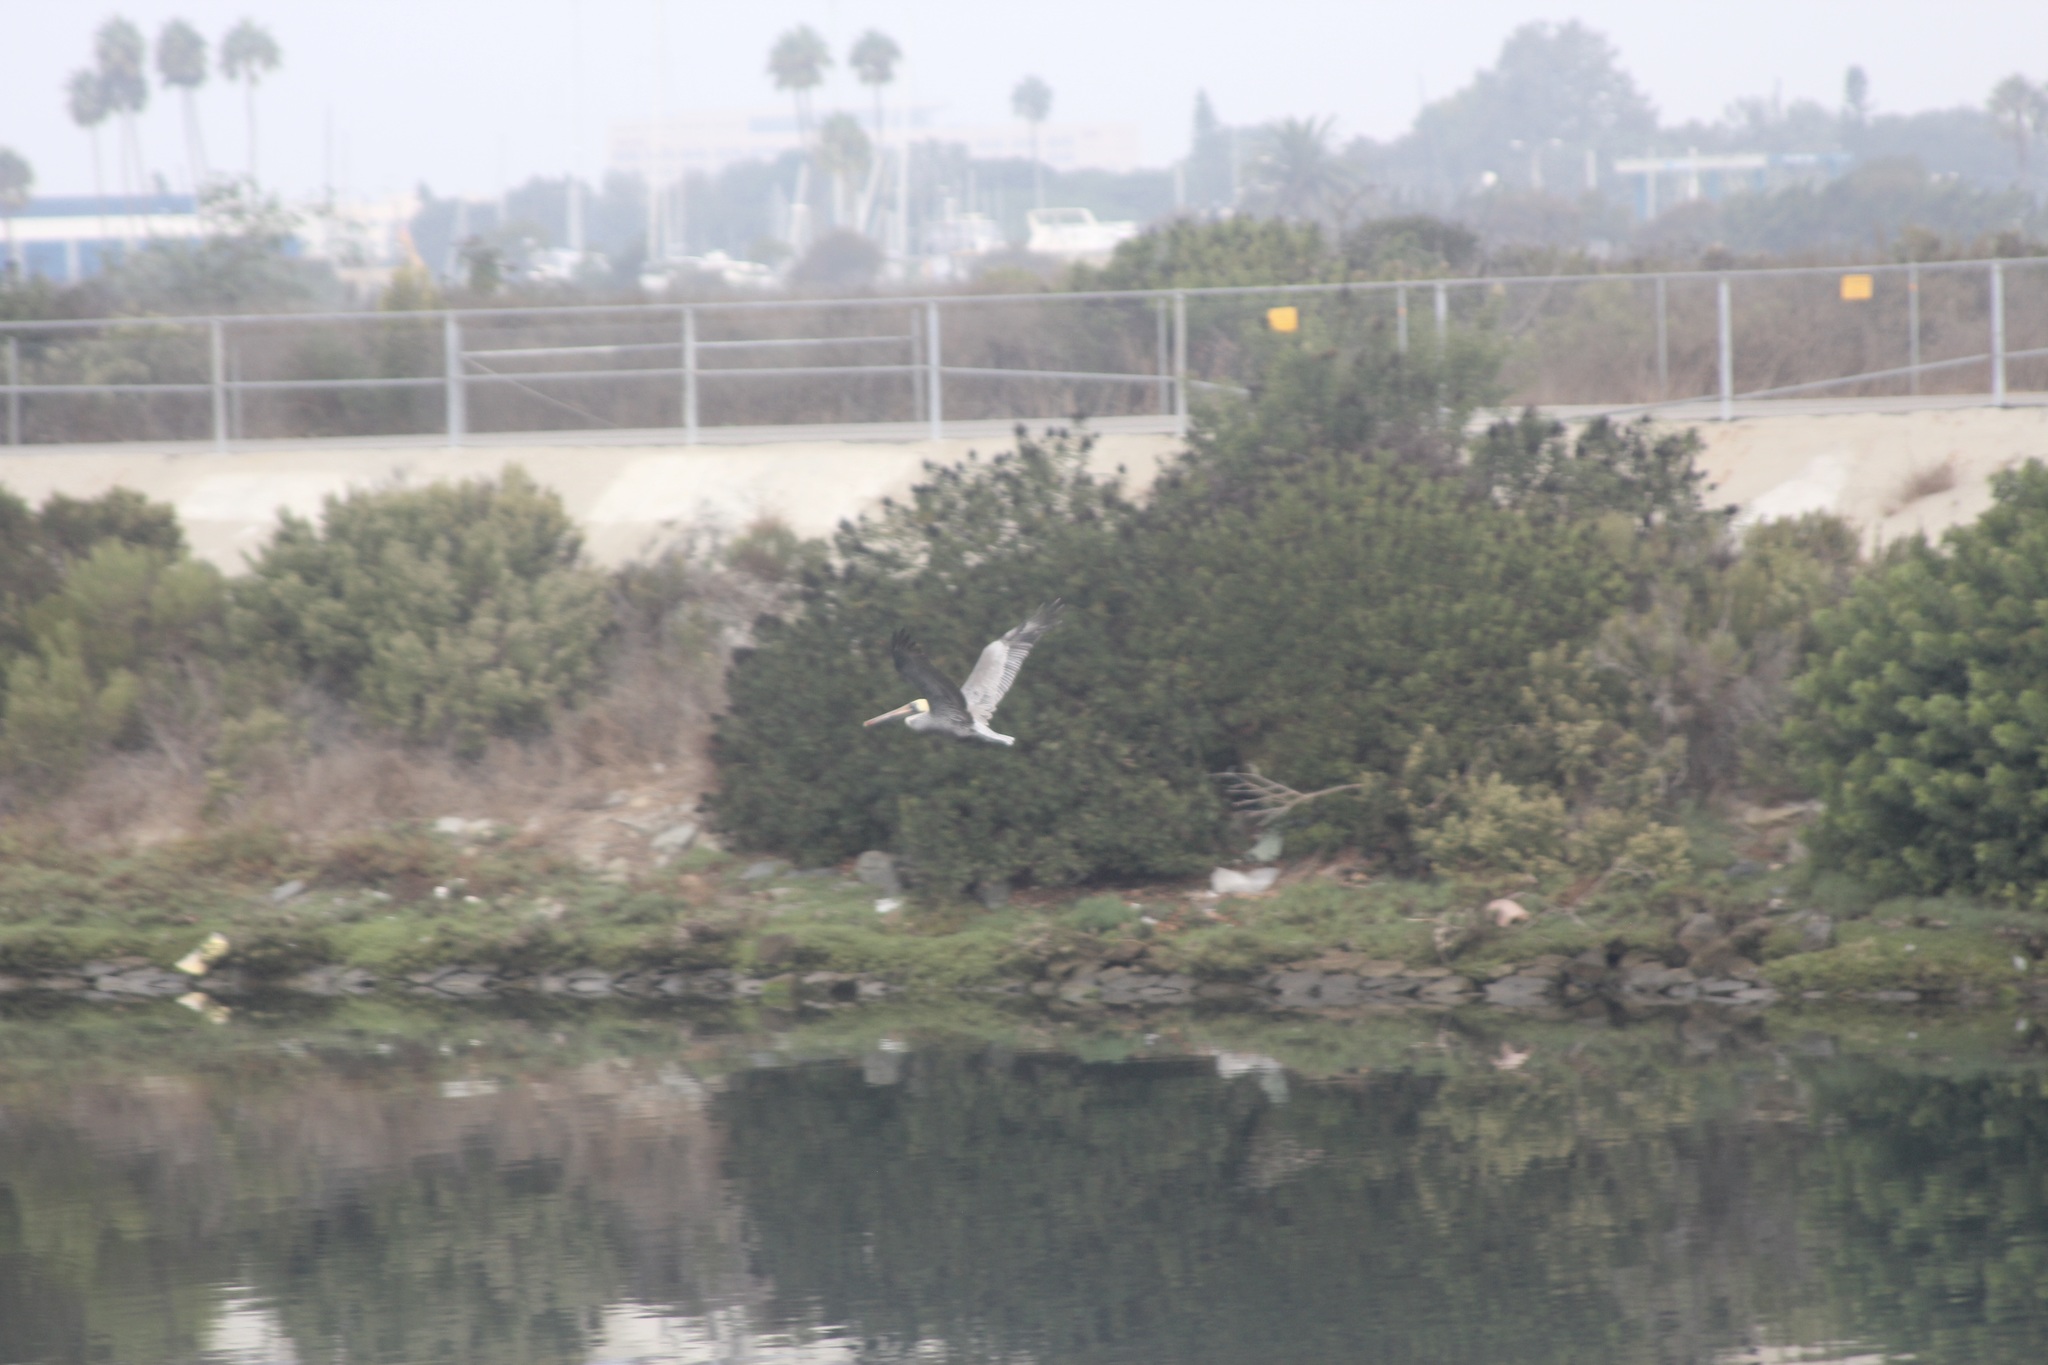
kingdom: Animalia
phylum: Chordata
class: Aves
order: Pelecaniformes
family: Pelecanidae
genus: Pelecanus
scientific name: Pelecanus occidentalis
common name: Brown pelican
